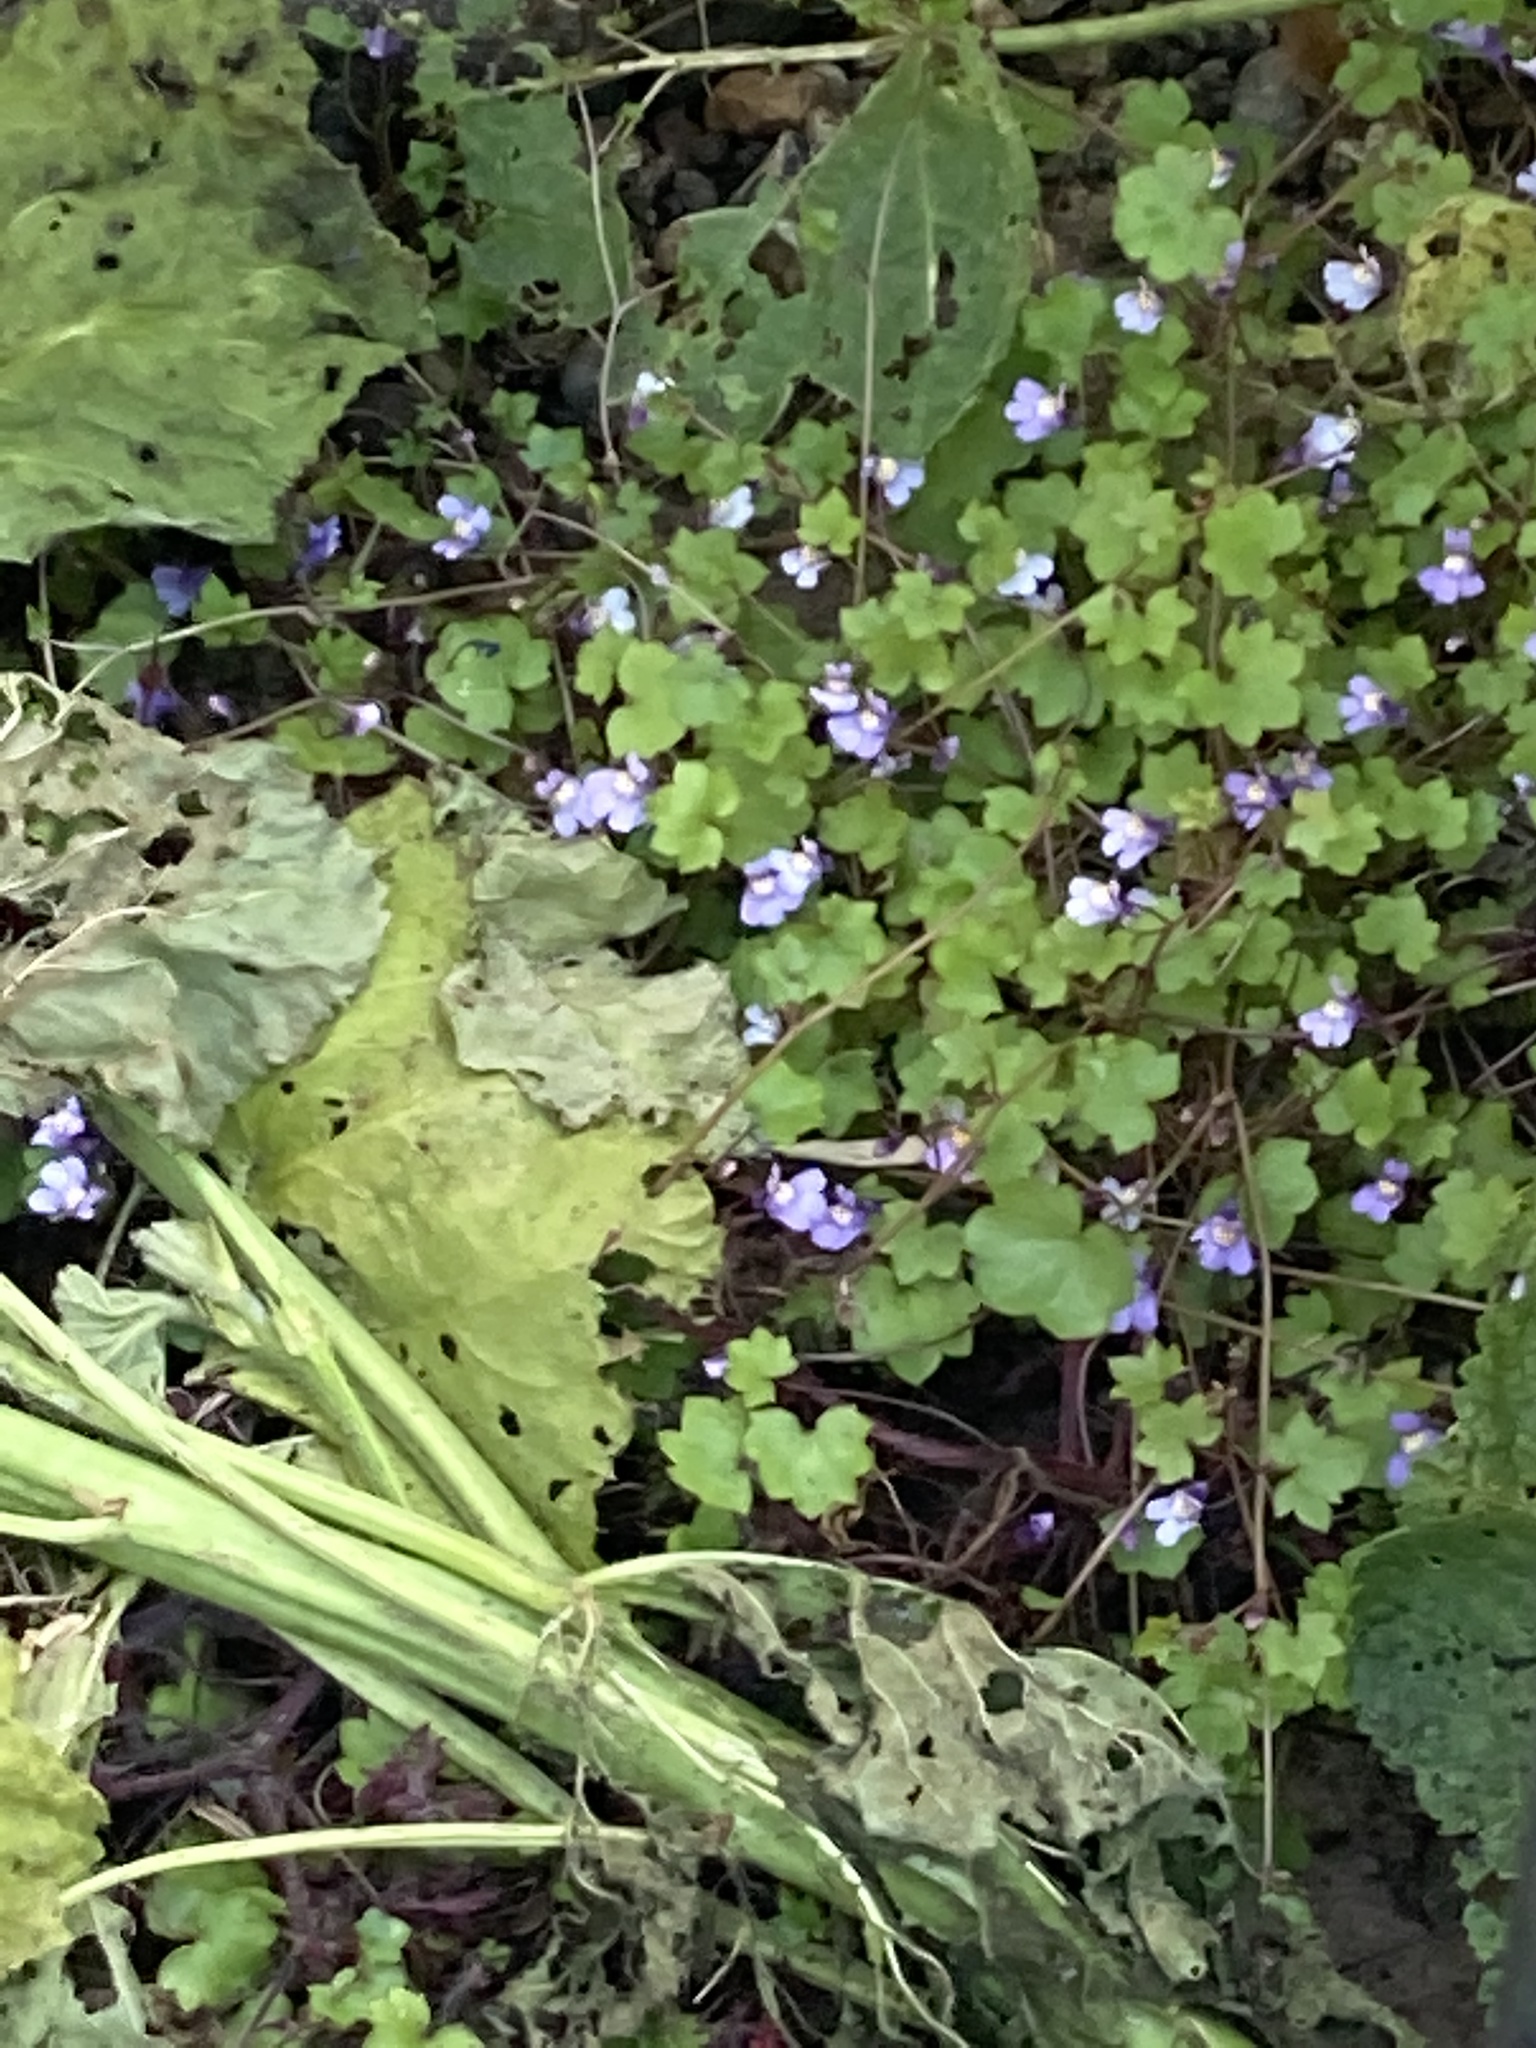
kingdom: Plantae
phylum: Tracheophyta
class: Magnoliopsida
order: Lamiales
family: Plantaginaceae
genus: Cymbalaria
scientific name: Cymbalaria muralis
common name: Ivy-leaved toadflax
